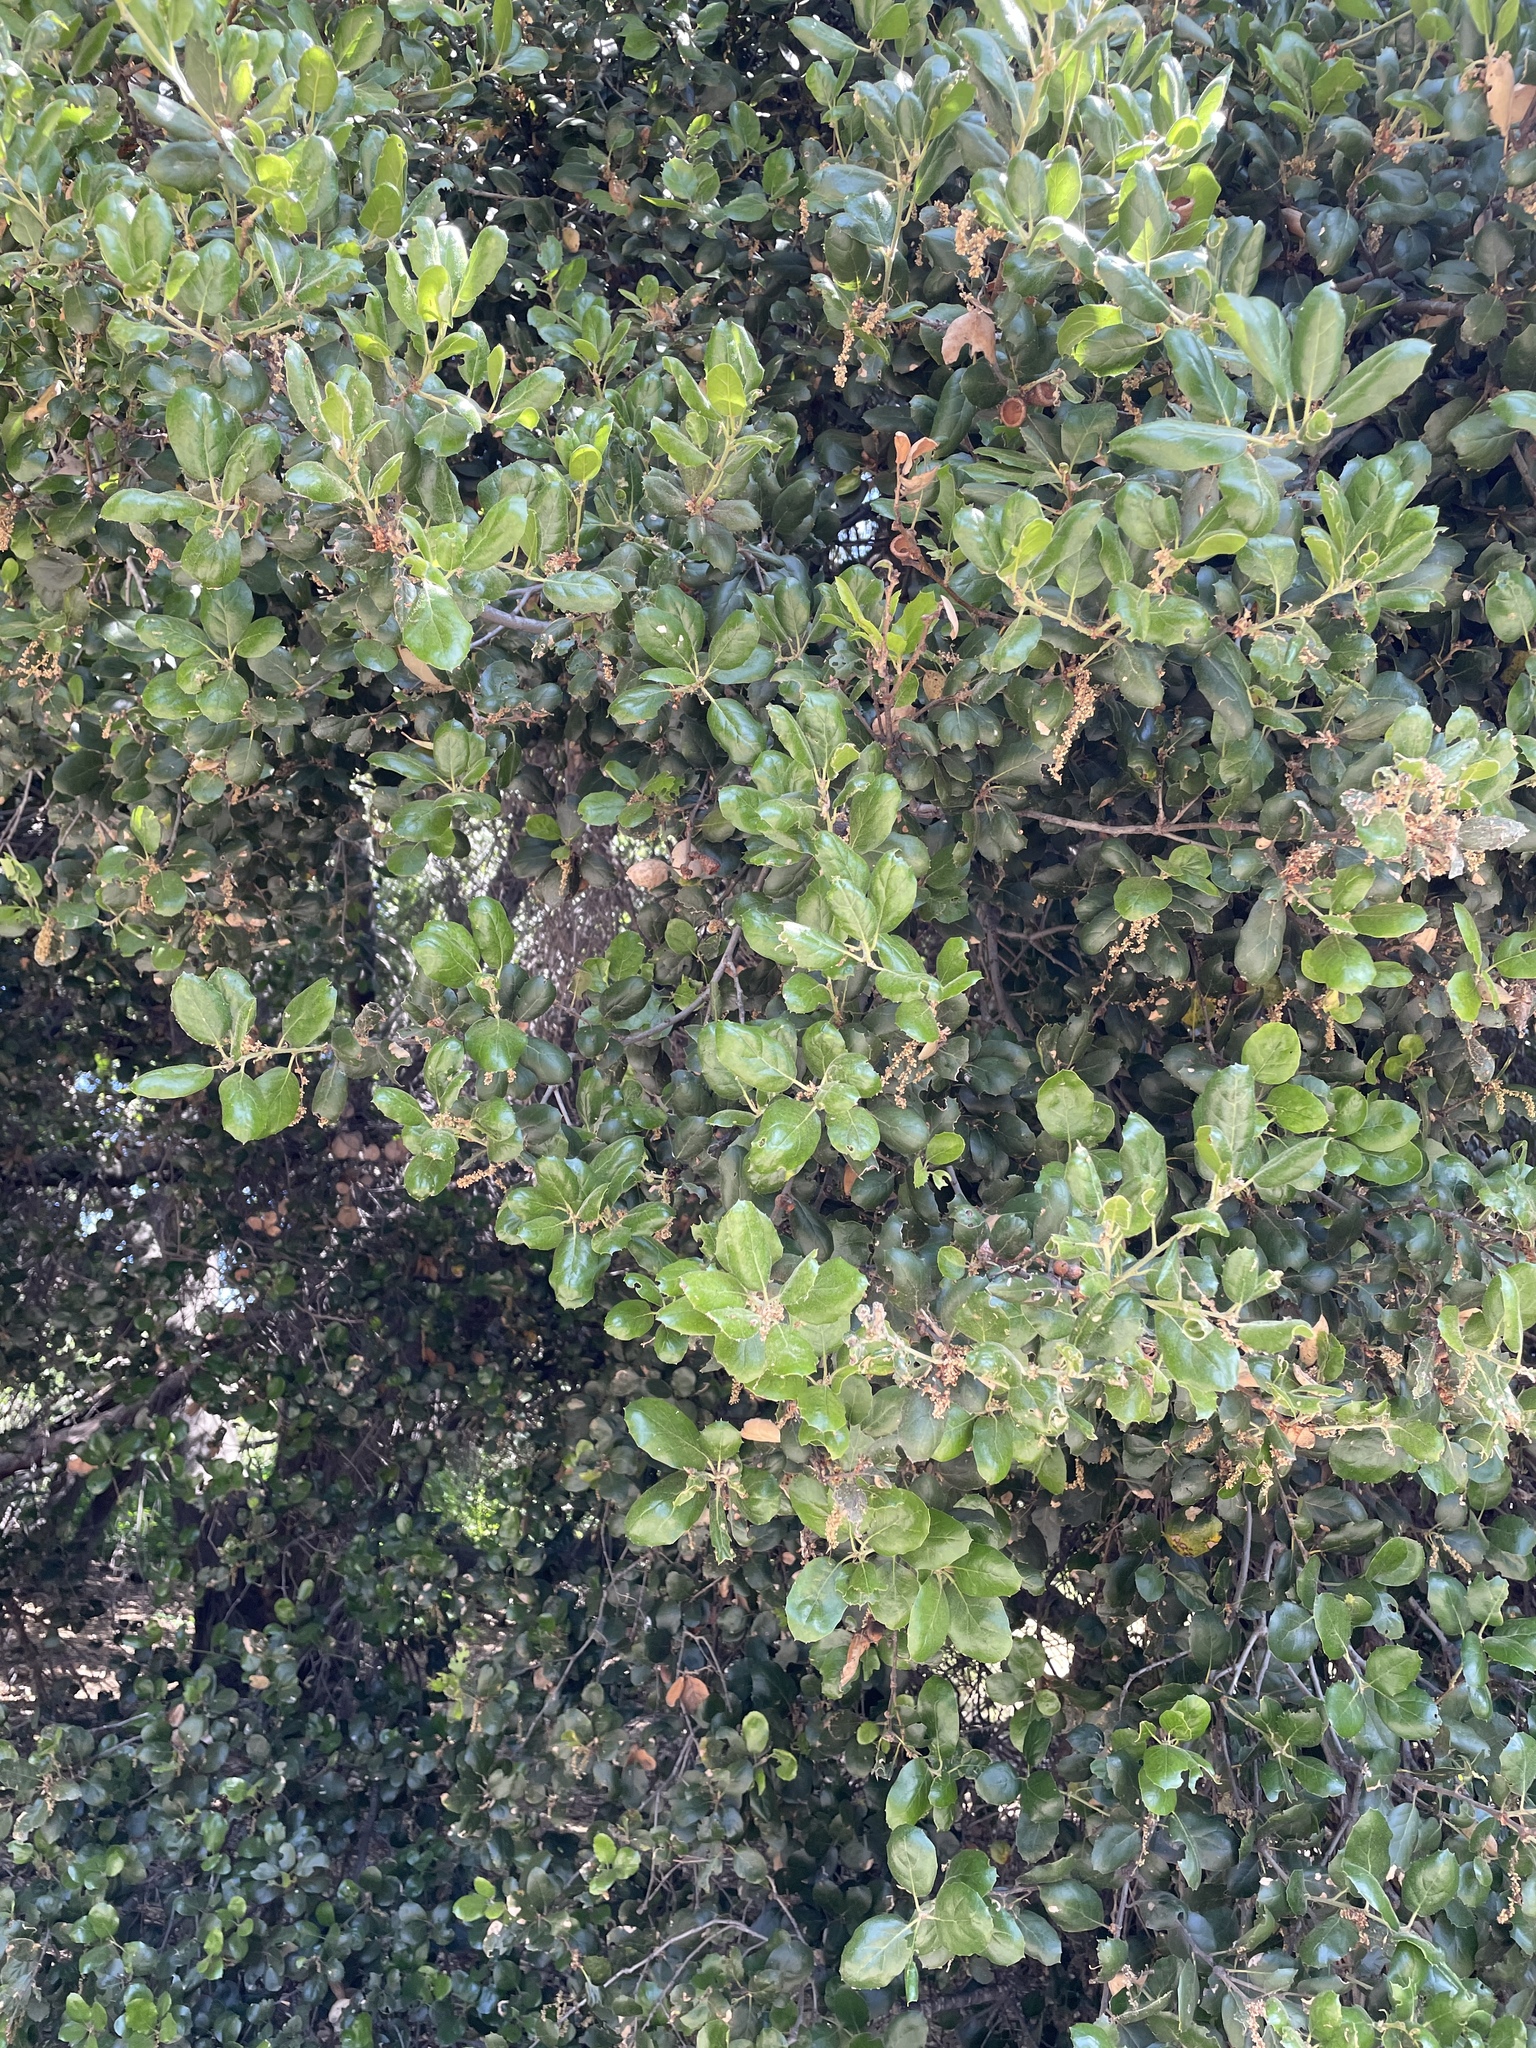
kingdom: Plantae
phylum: Tracheophyta
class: Magnoliopsida
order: Fagales
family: Fagaceae
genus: Quercus
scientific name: Quercus agrifolia
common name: California live oak
